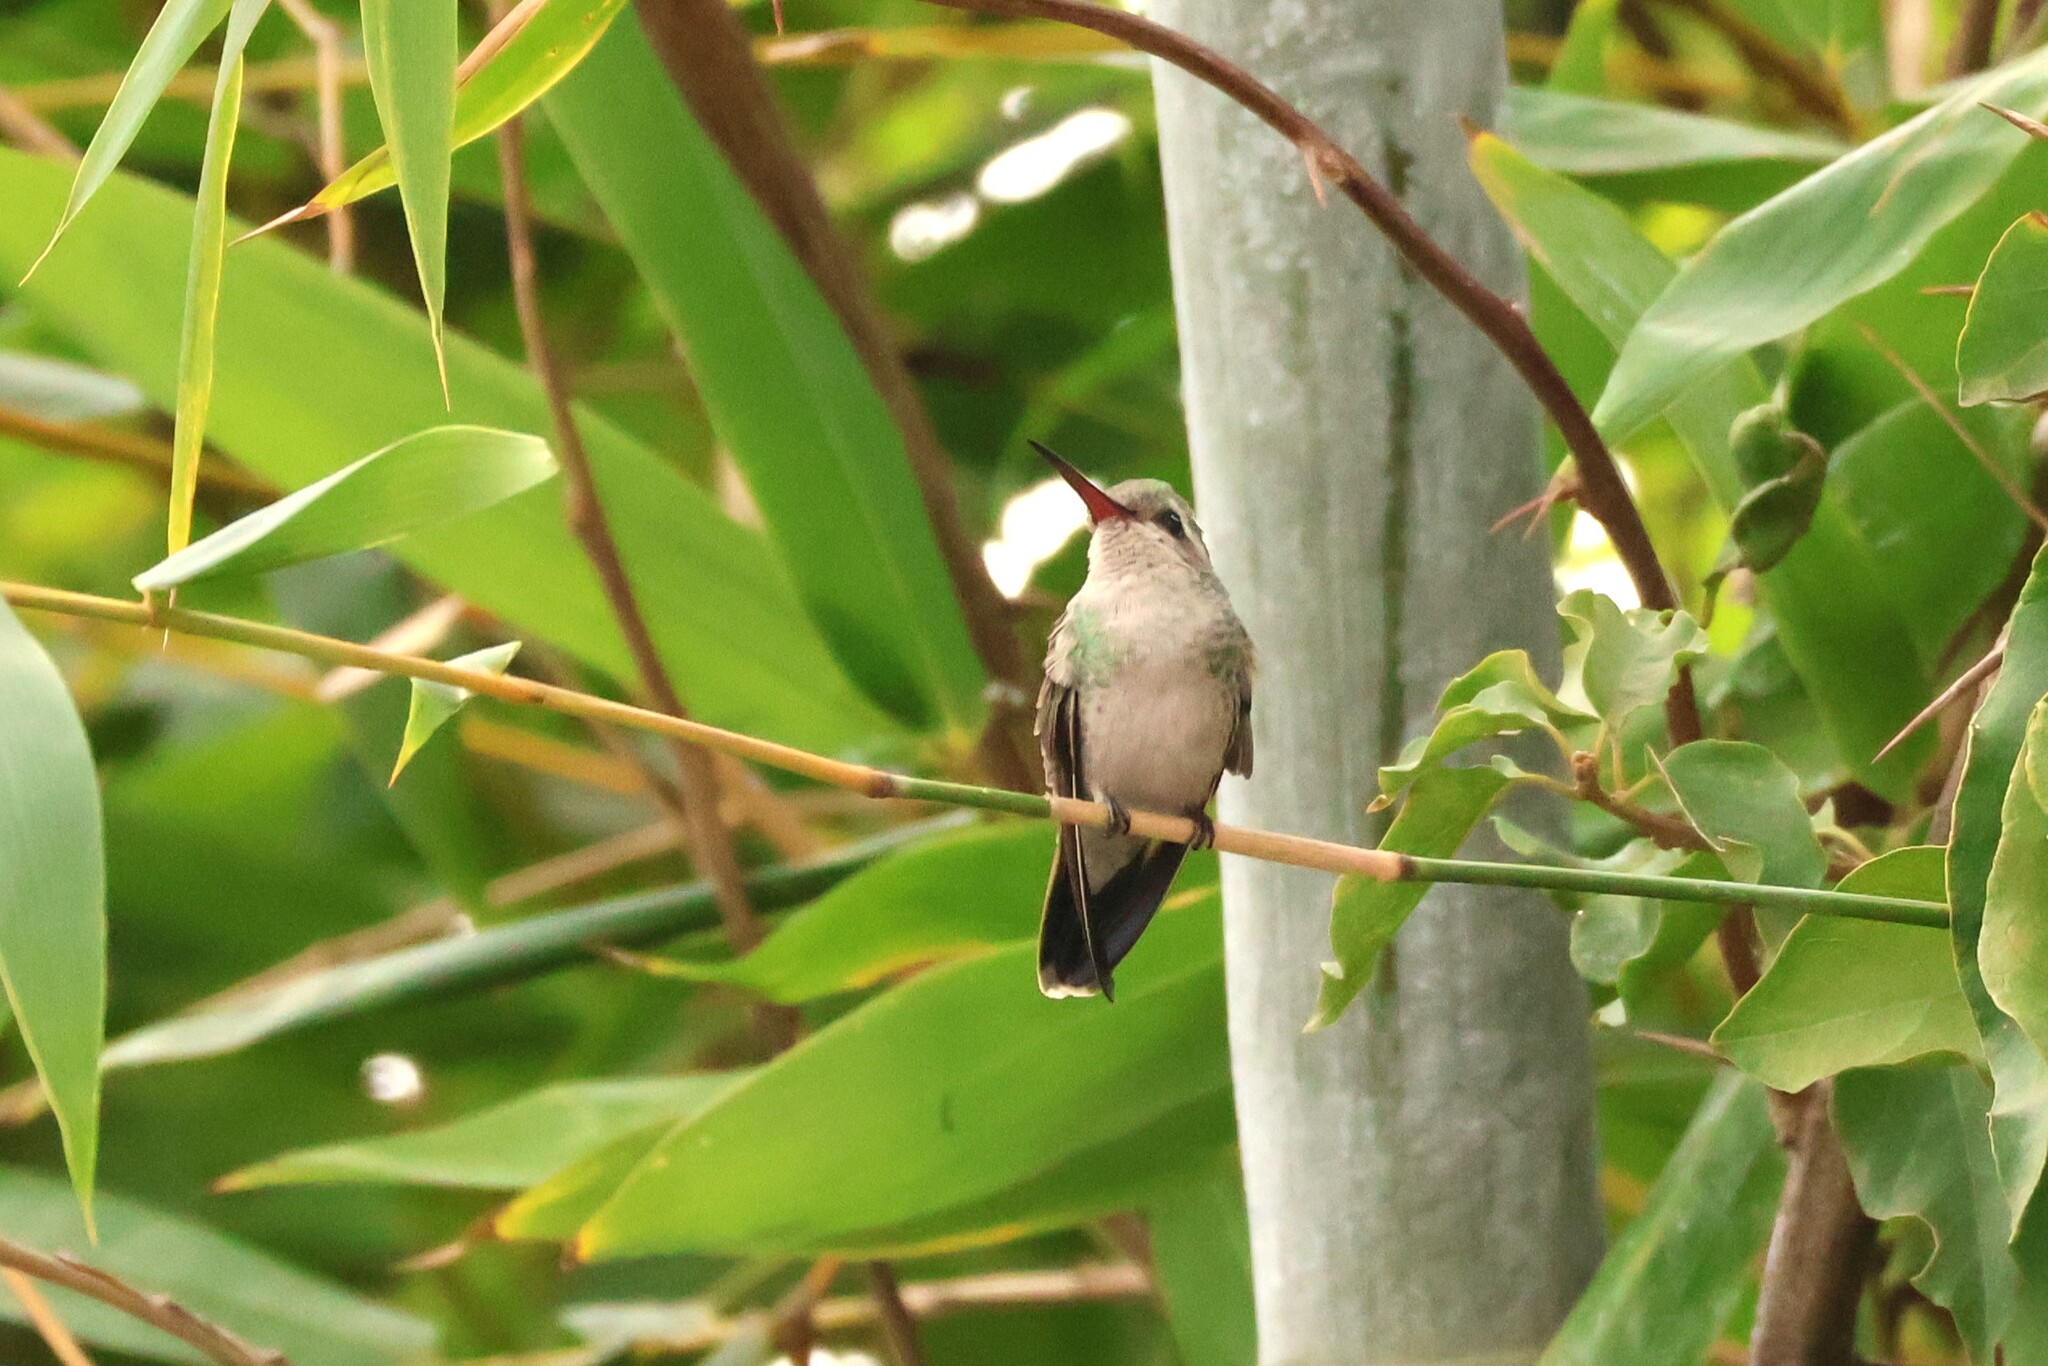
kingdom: Animalia
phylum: Chordata
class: Aves
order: Apodiformes
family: Trochilidae
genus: Cynanthus
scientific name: Cynanthus latirostris
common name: Broad-billed hummingbird
